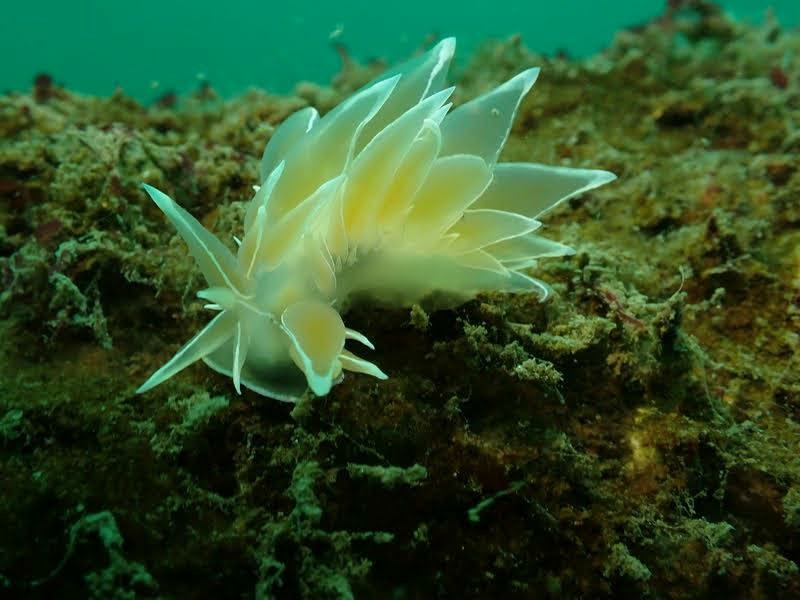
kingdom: Animalia
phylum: Mollusca
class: Gastropoda
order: Nudibranchia
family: Dironidae
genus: Dirona
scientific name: Dirona albolineata
